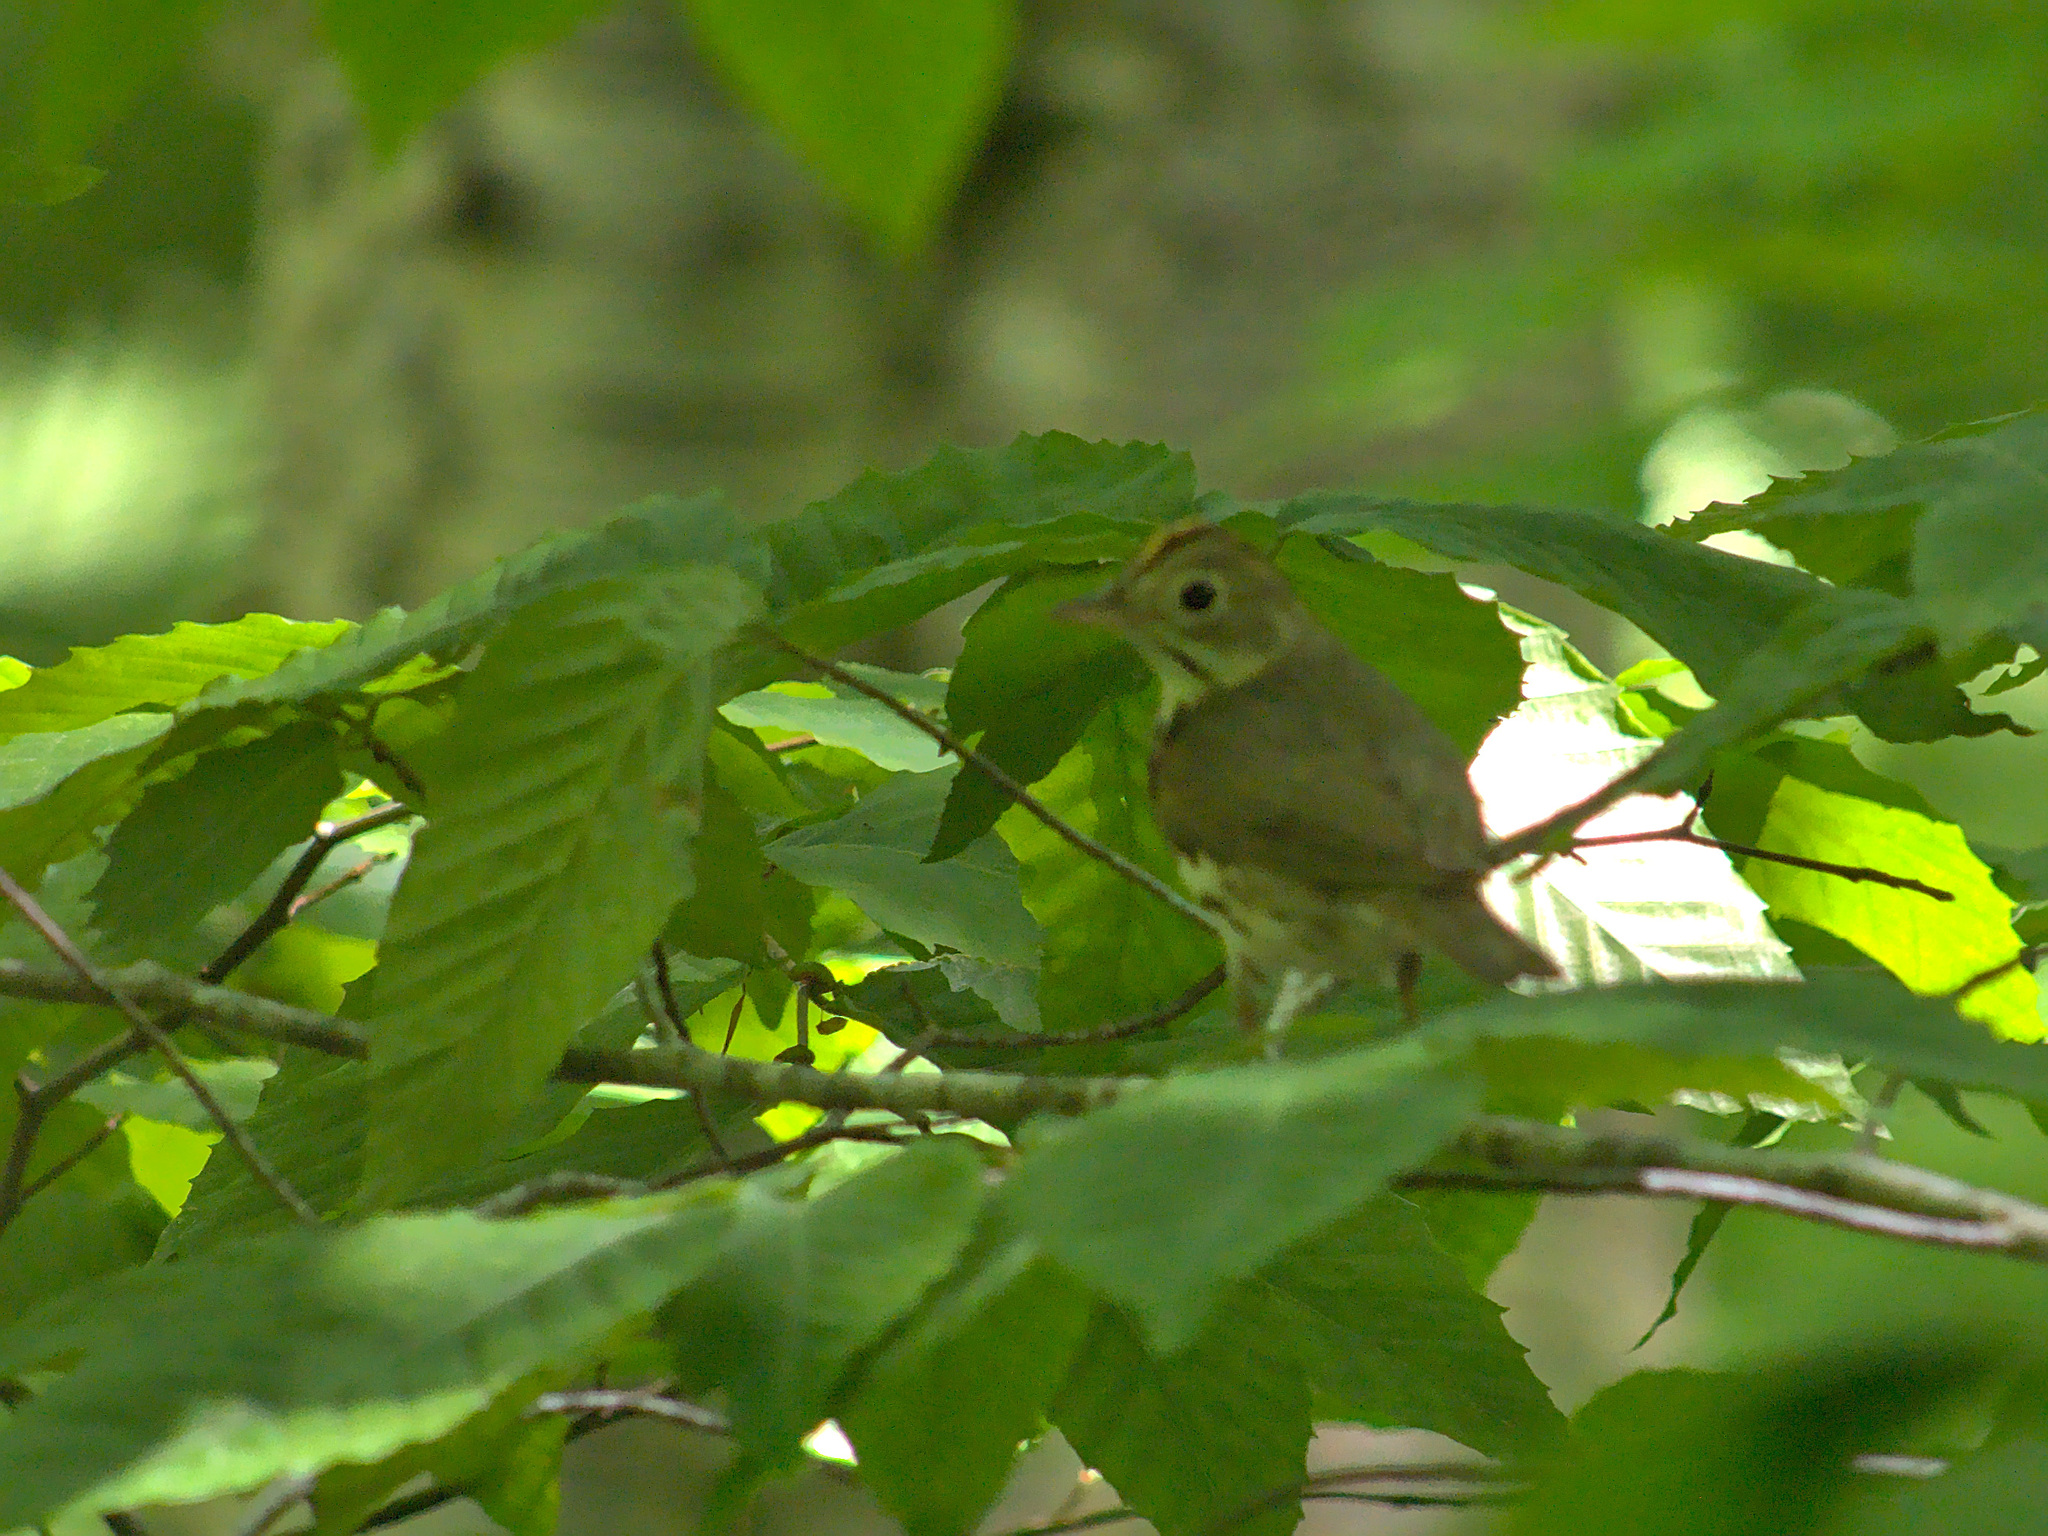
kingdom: Animalia
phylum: Chordata
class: Aves
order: Passeriformes
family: Parulidae
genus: Seiurus
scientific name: Seiurus aurocapilla
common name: Ovenbird
